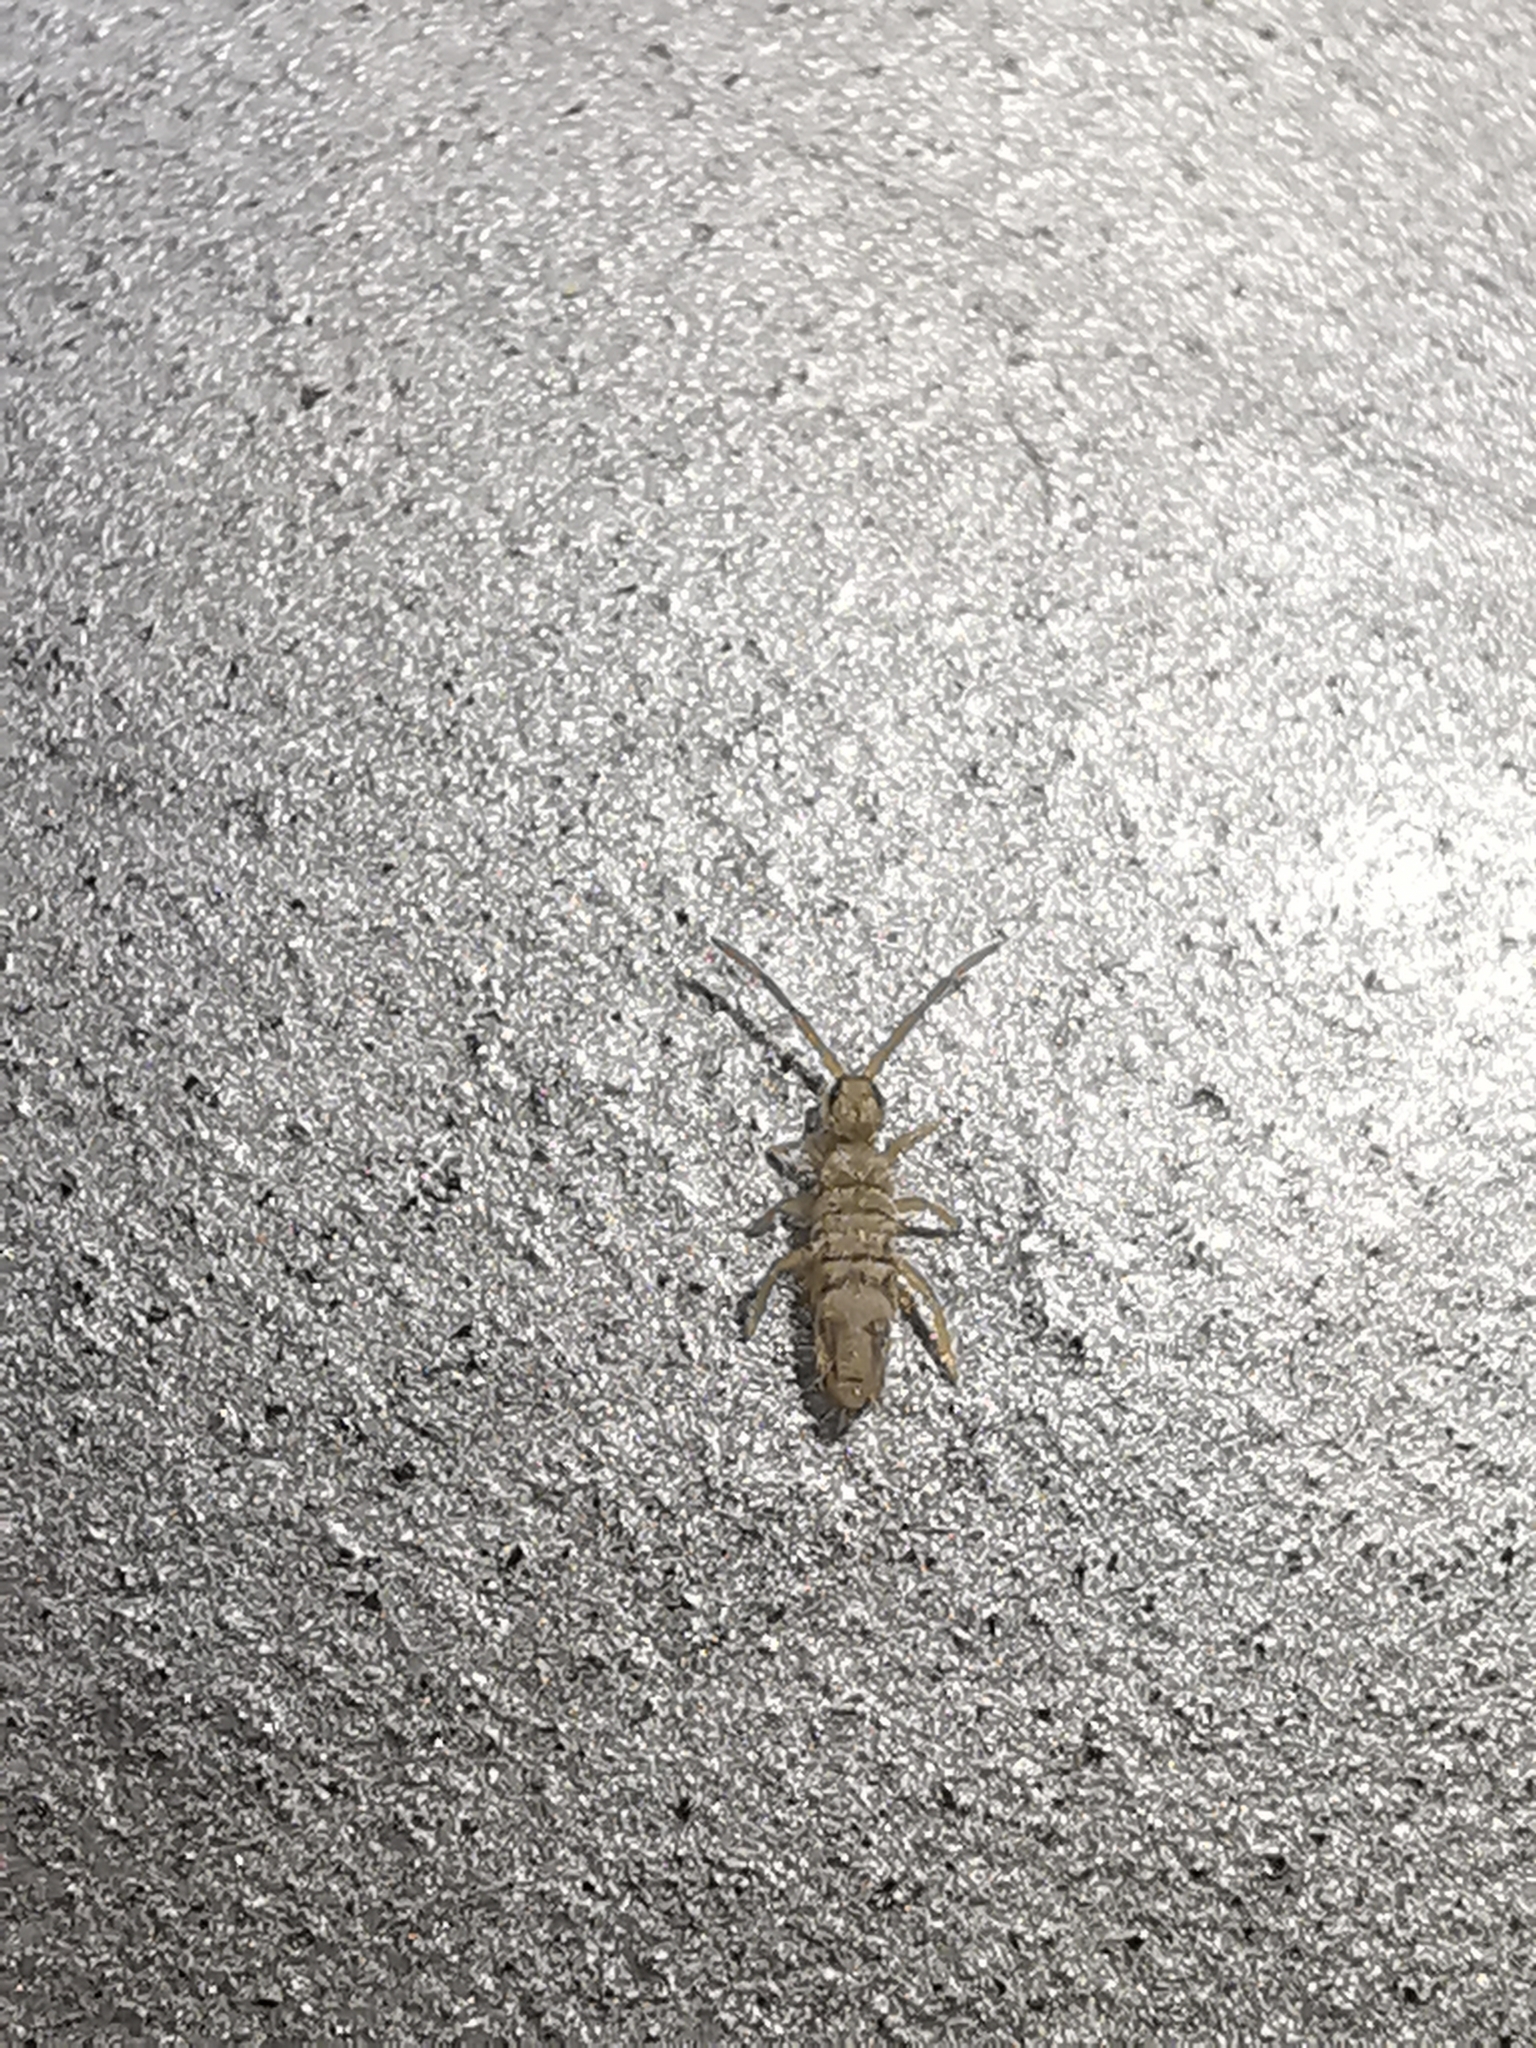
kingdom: Animalia
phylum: Arthropoda
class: Collembola
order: Entomobryomorpha
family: Entomobryidae
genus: Entomobrya
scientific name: Entomobrya nivalis
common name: Cosmopolitan springtail
